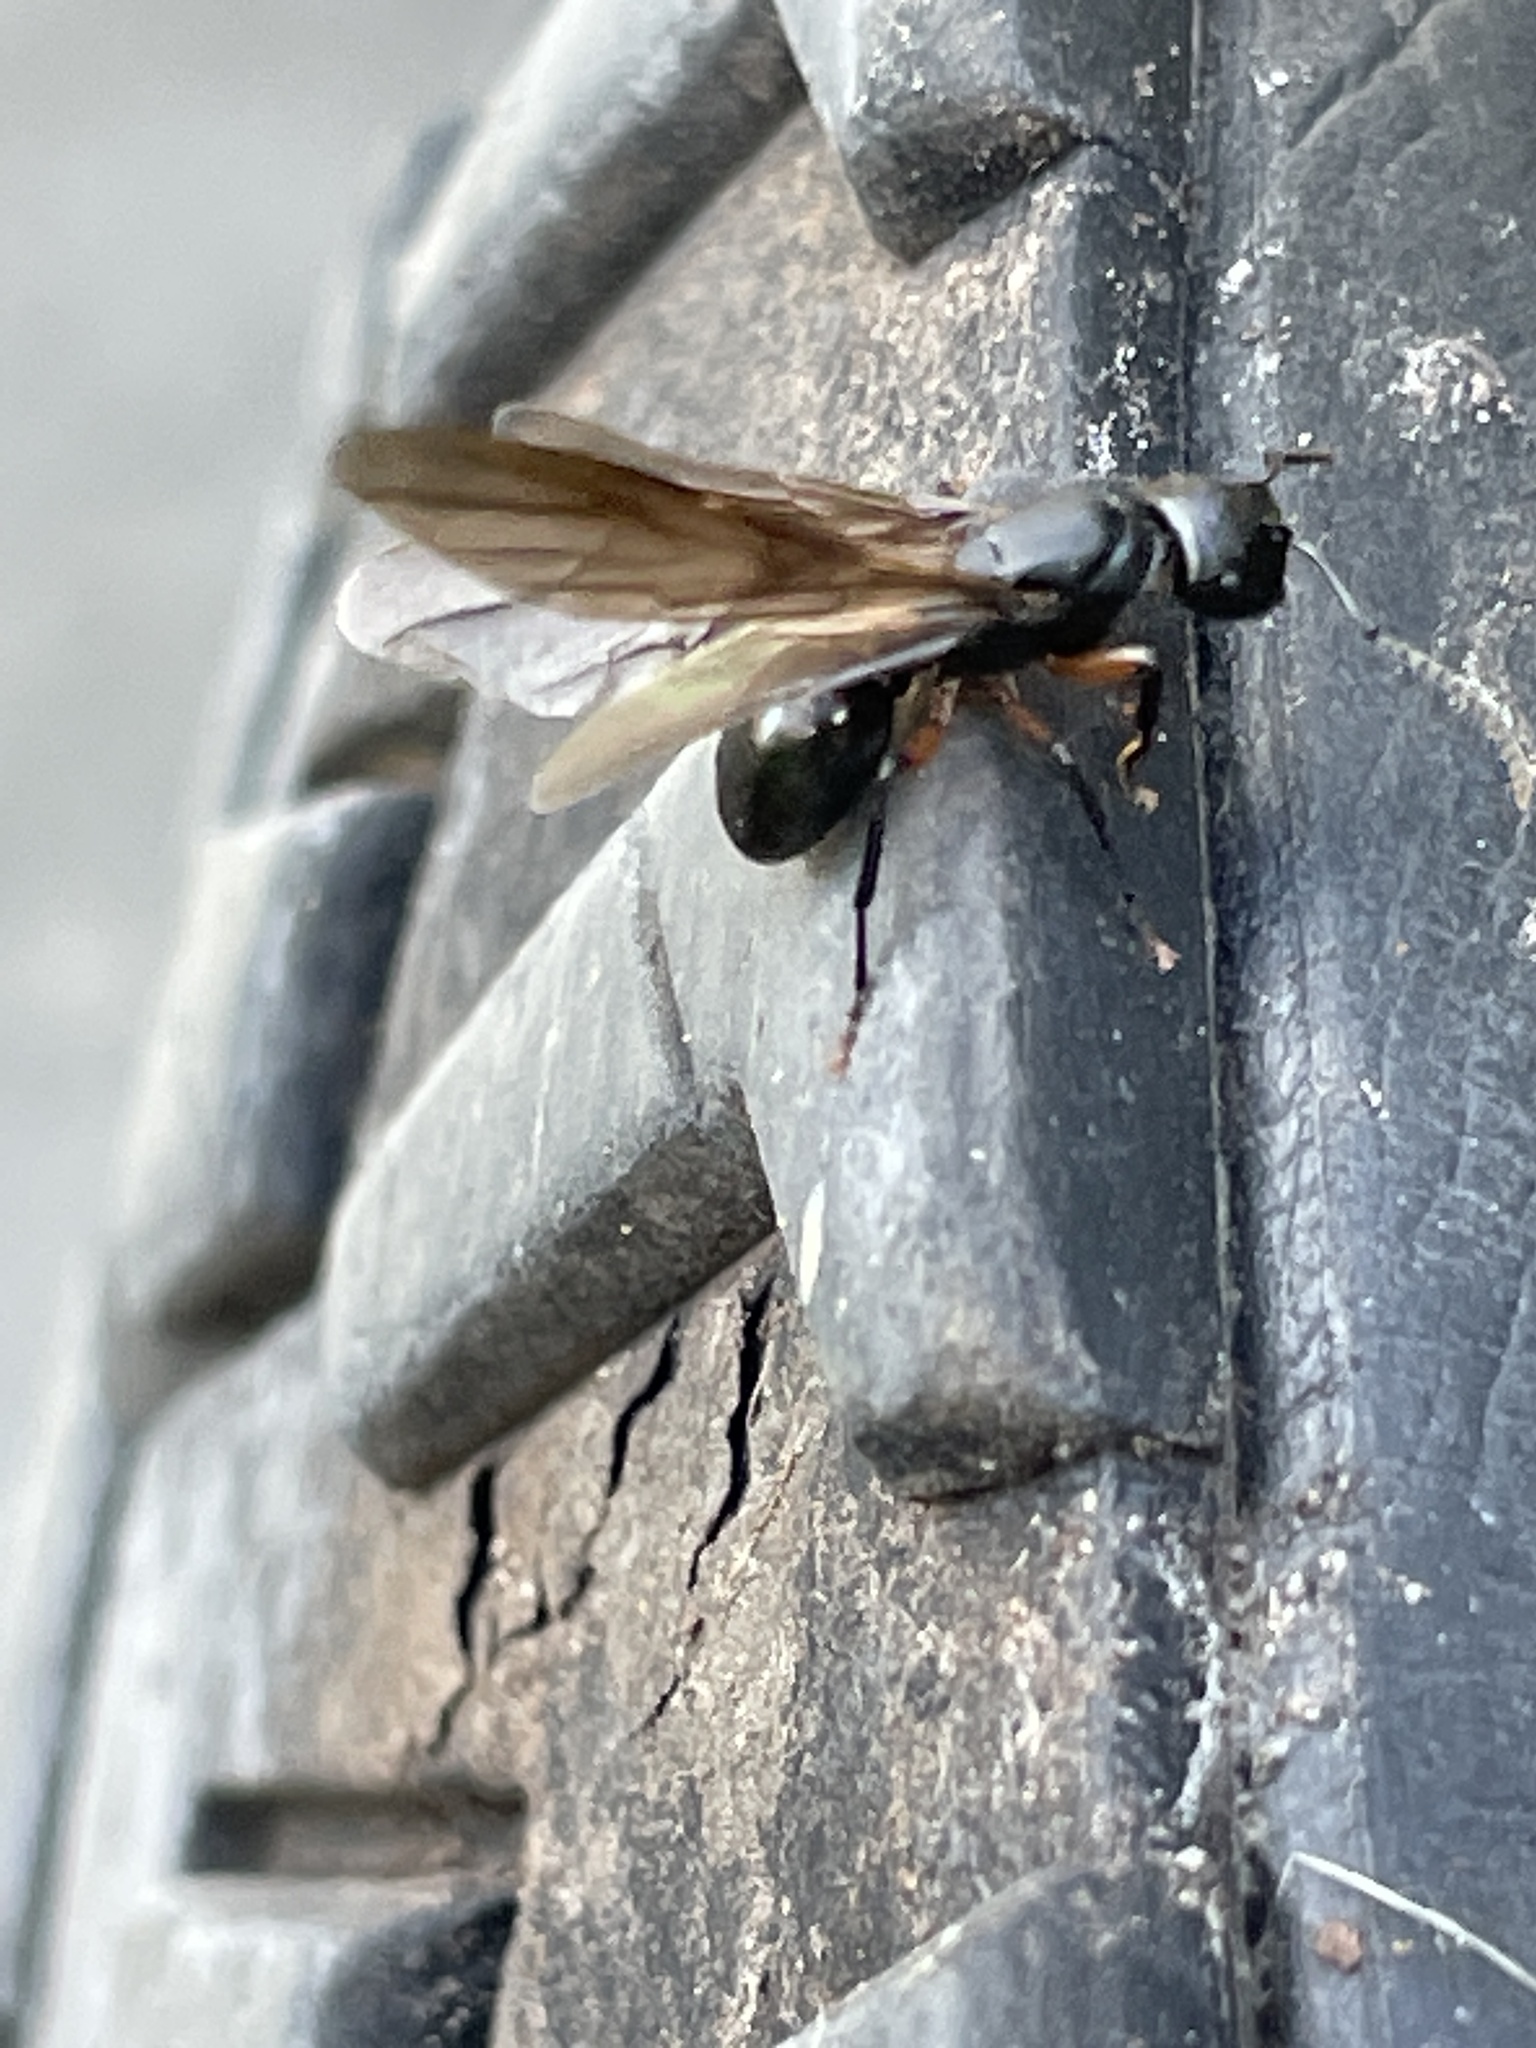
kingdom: Animalia
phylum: Arthropoda
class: Insecta
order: Hymenoptera
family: Formicidae
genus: Polyrhachis
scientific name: Polyrhachis femorata
